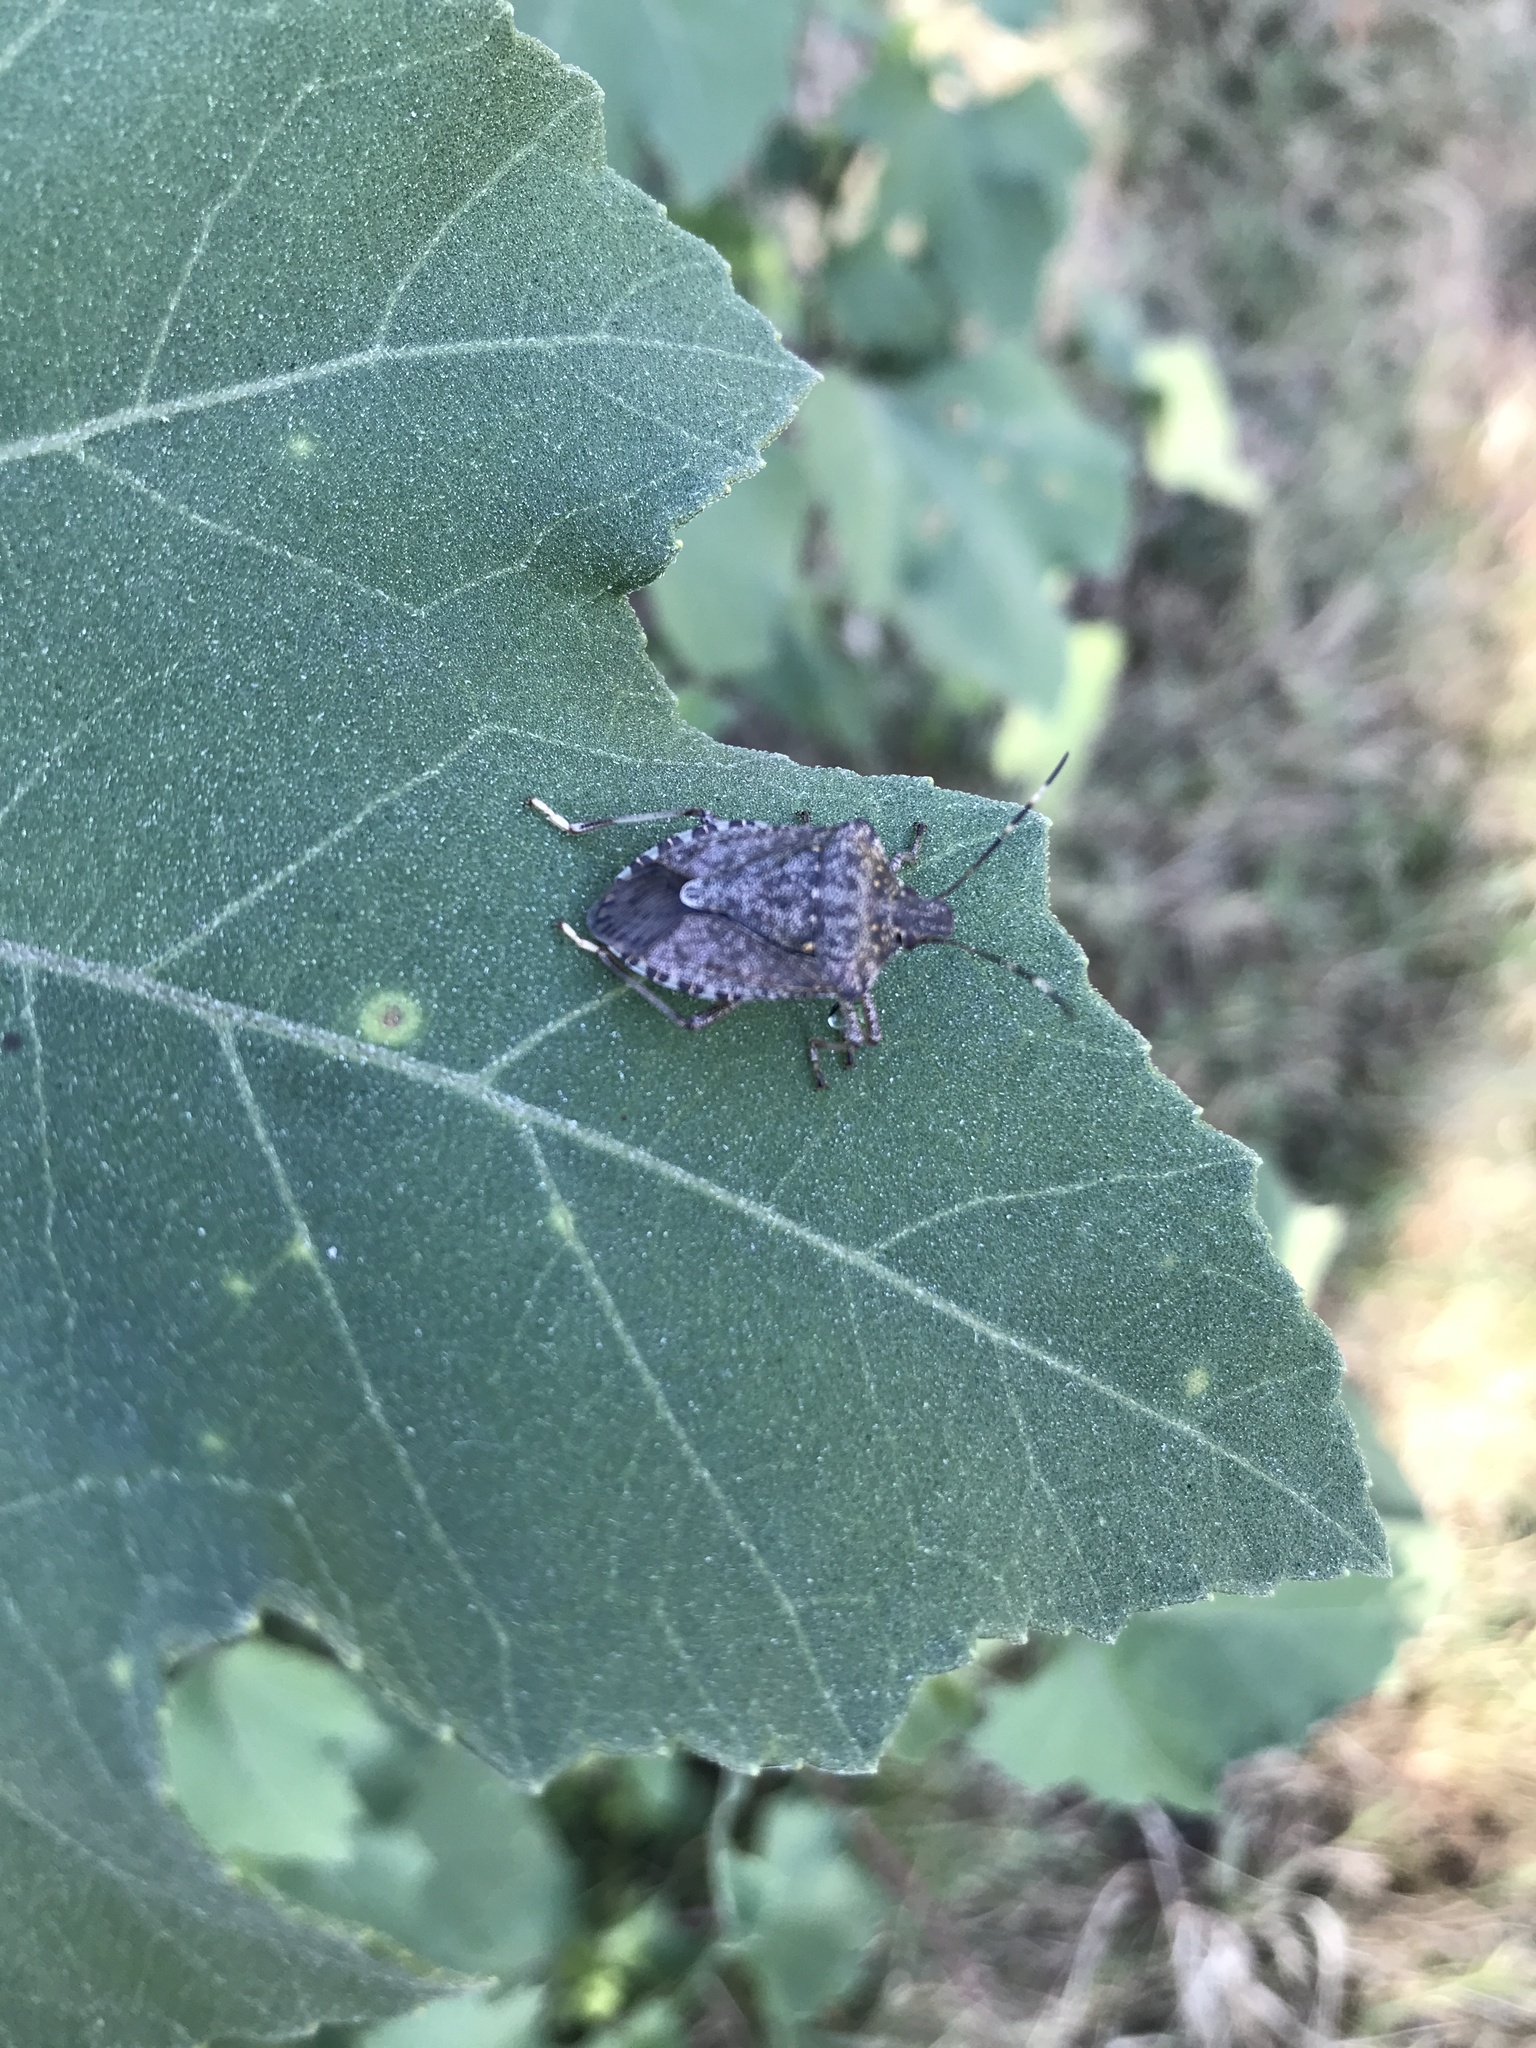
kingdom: Animalia
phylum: Arthropoda
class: Insecta
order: Hemiptera
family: Pentatomidae
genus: Halyomorpha
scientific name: Halyomorpha halys
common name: Brown marmorated stink bug
